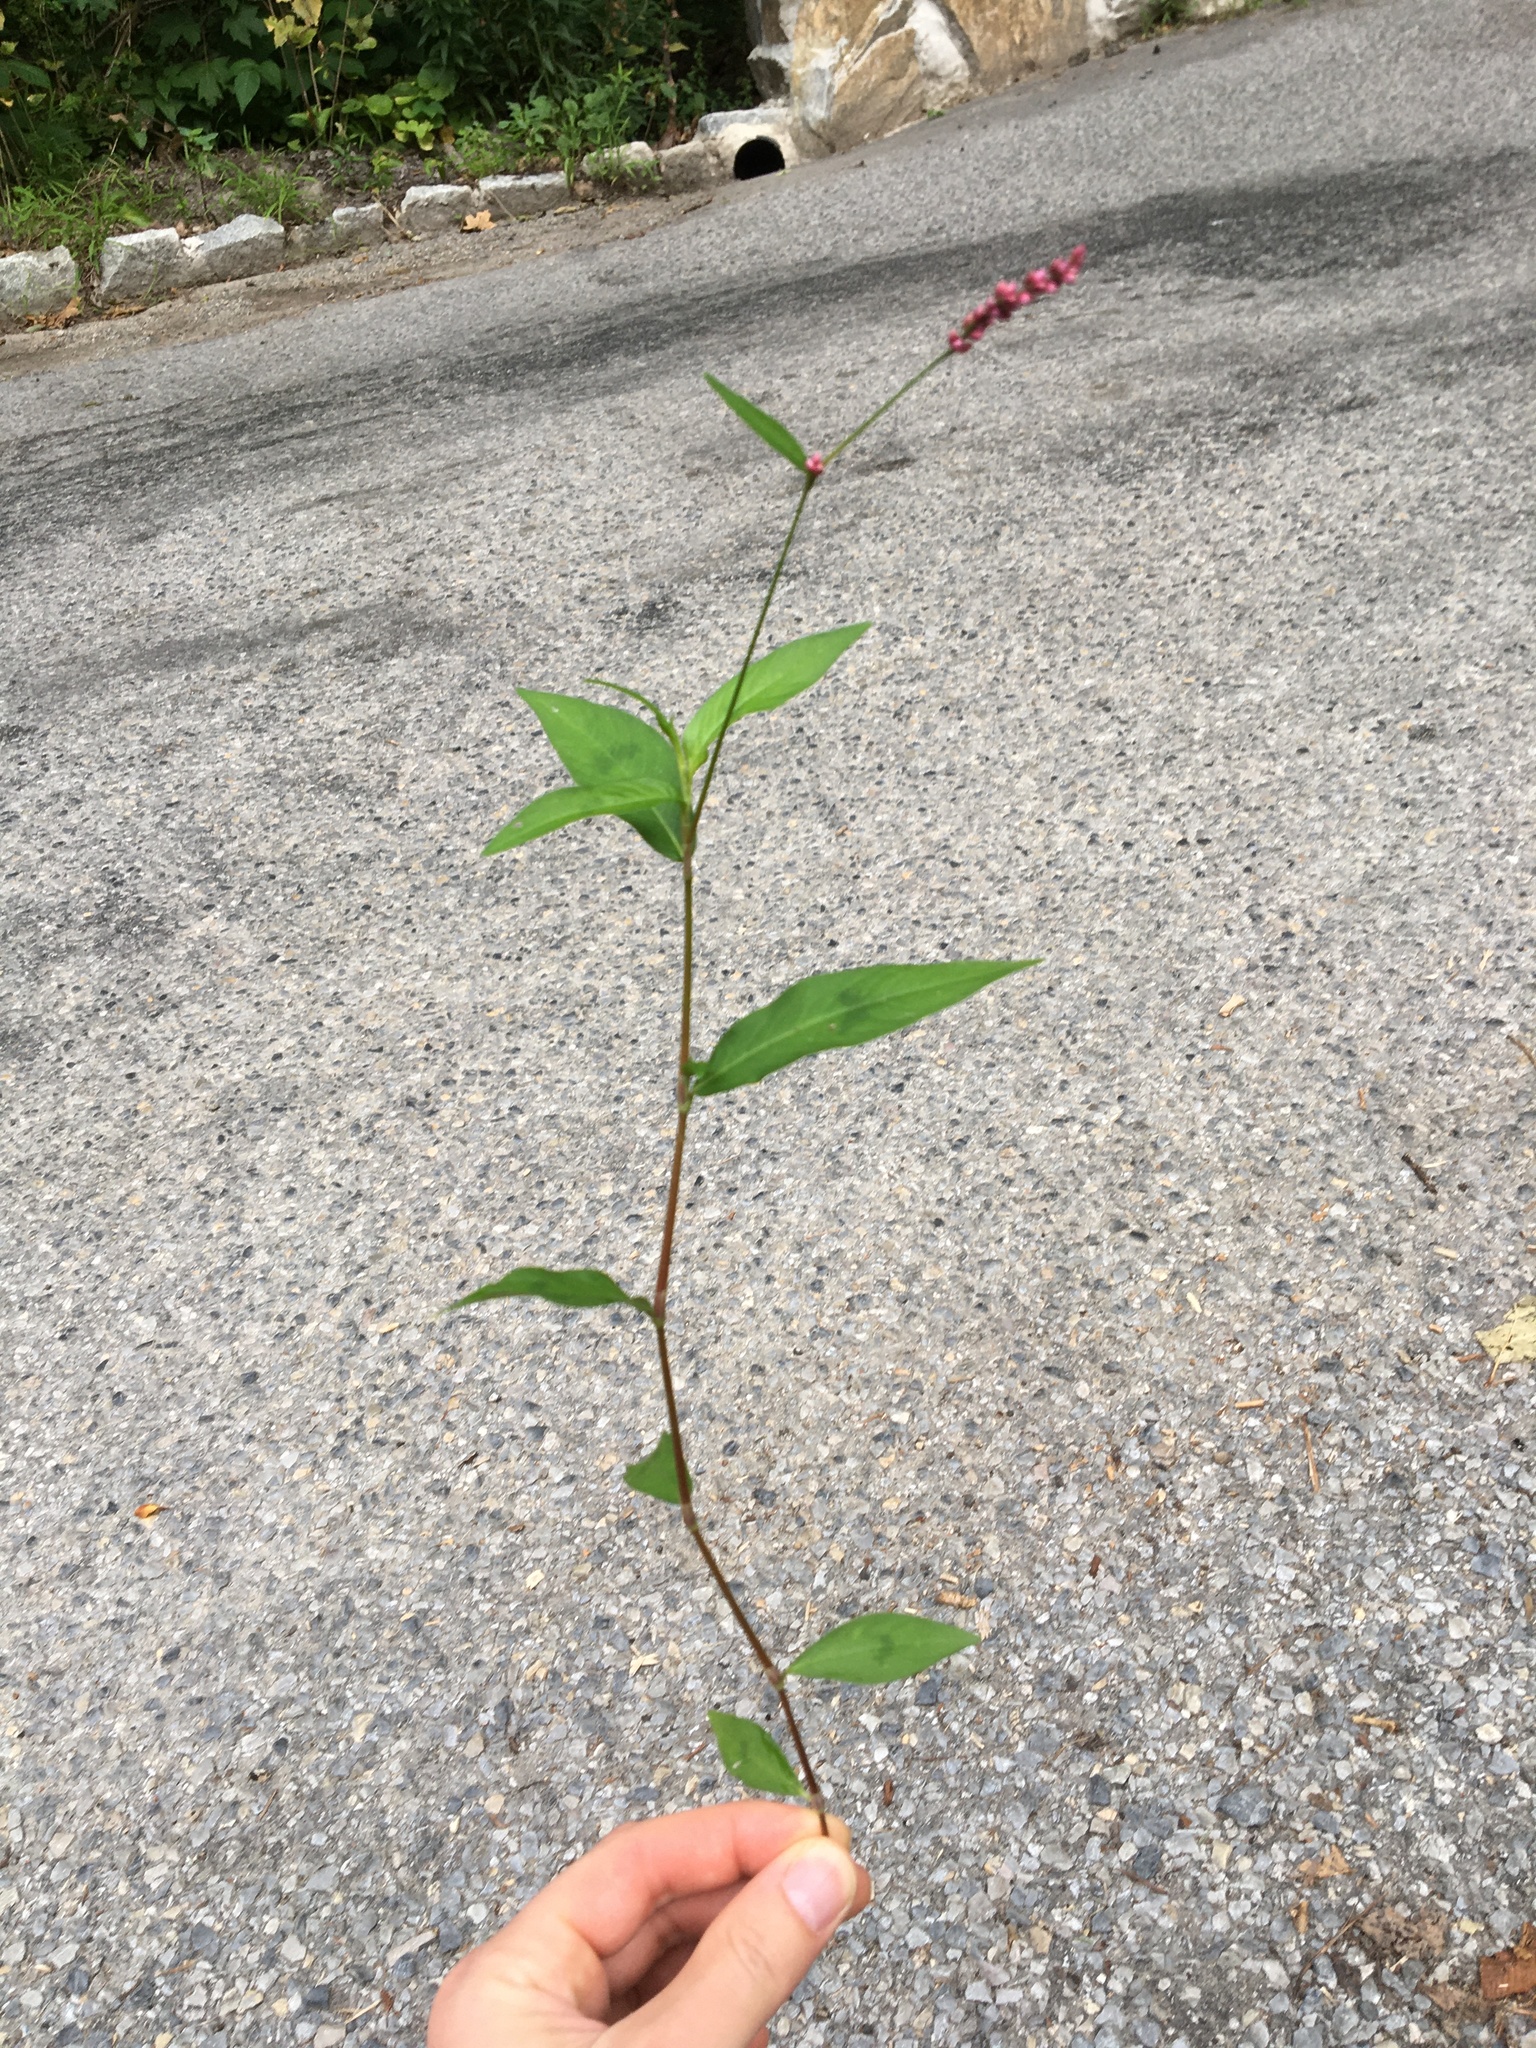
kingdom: Plantae
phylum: Tracheophyta
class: Magnoliopsida
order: Caryophyllales
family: Polygonaceae
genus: Persicaria
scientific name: Persicaria longiseta
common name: Bristly lady's-thumb
